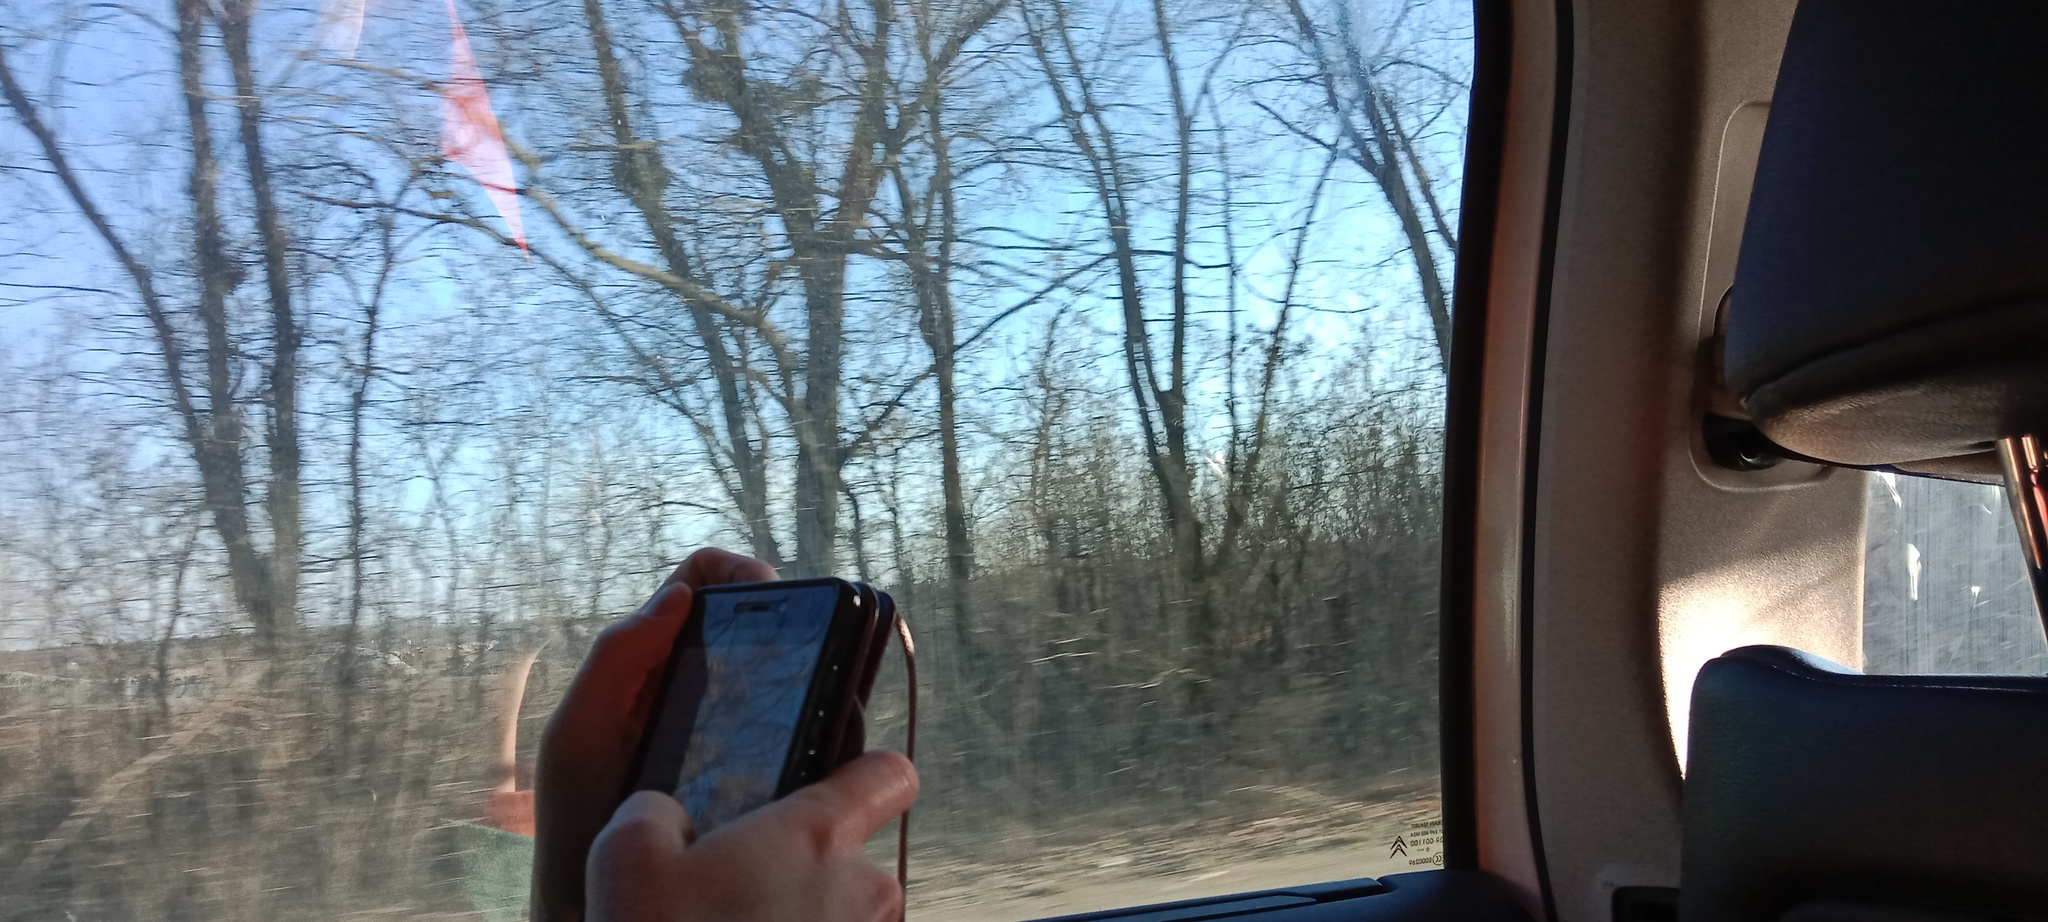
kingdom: Plantae
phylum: Tracheophyta
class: Magnoliopsida
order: Santalales
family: Viscaceae
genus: Viscum
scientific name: Viscum album
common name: Mistletoe
